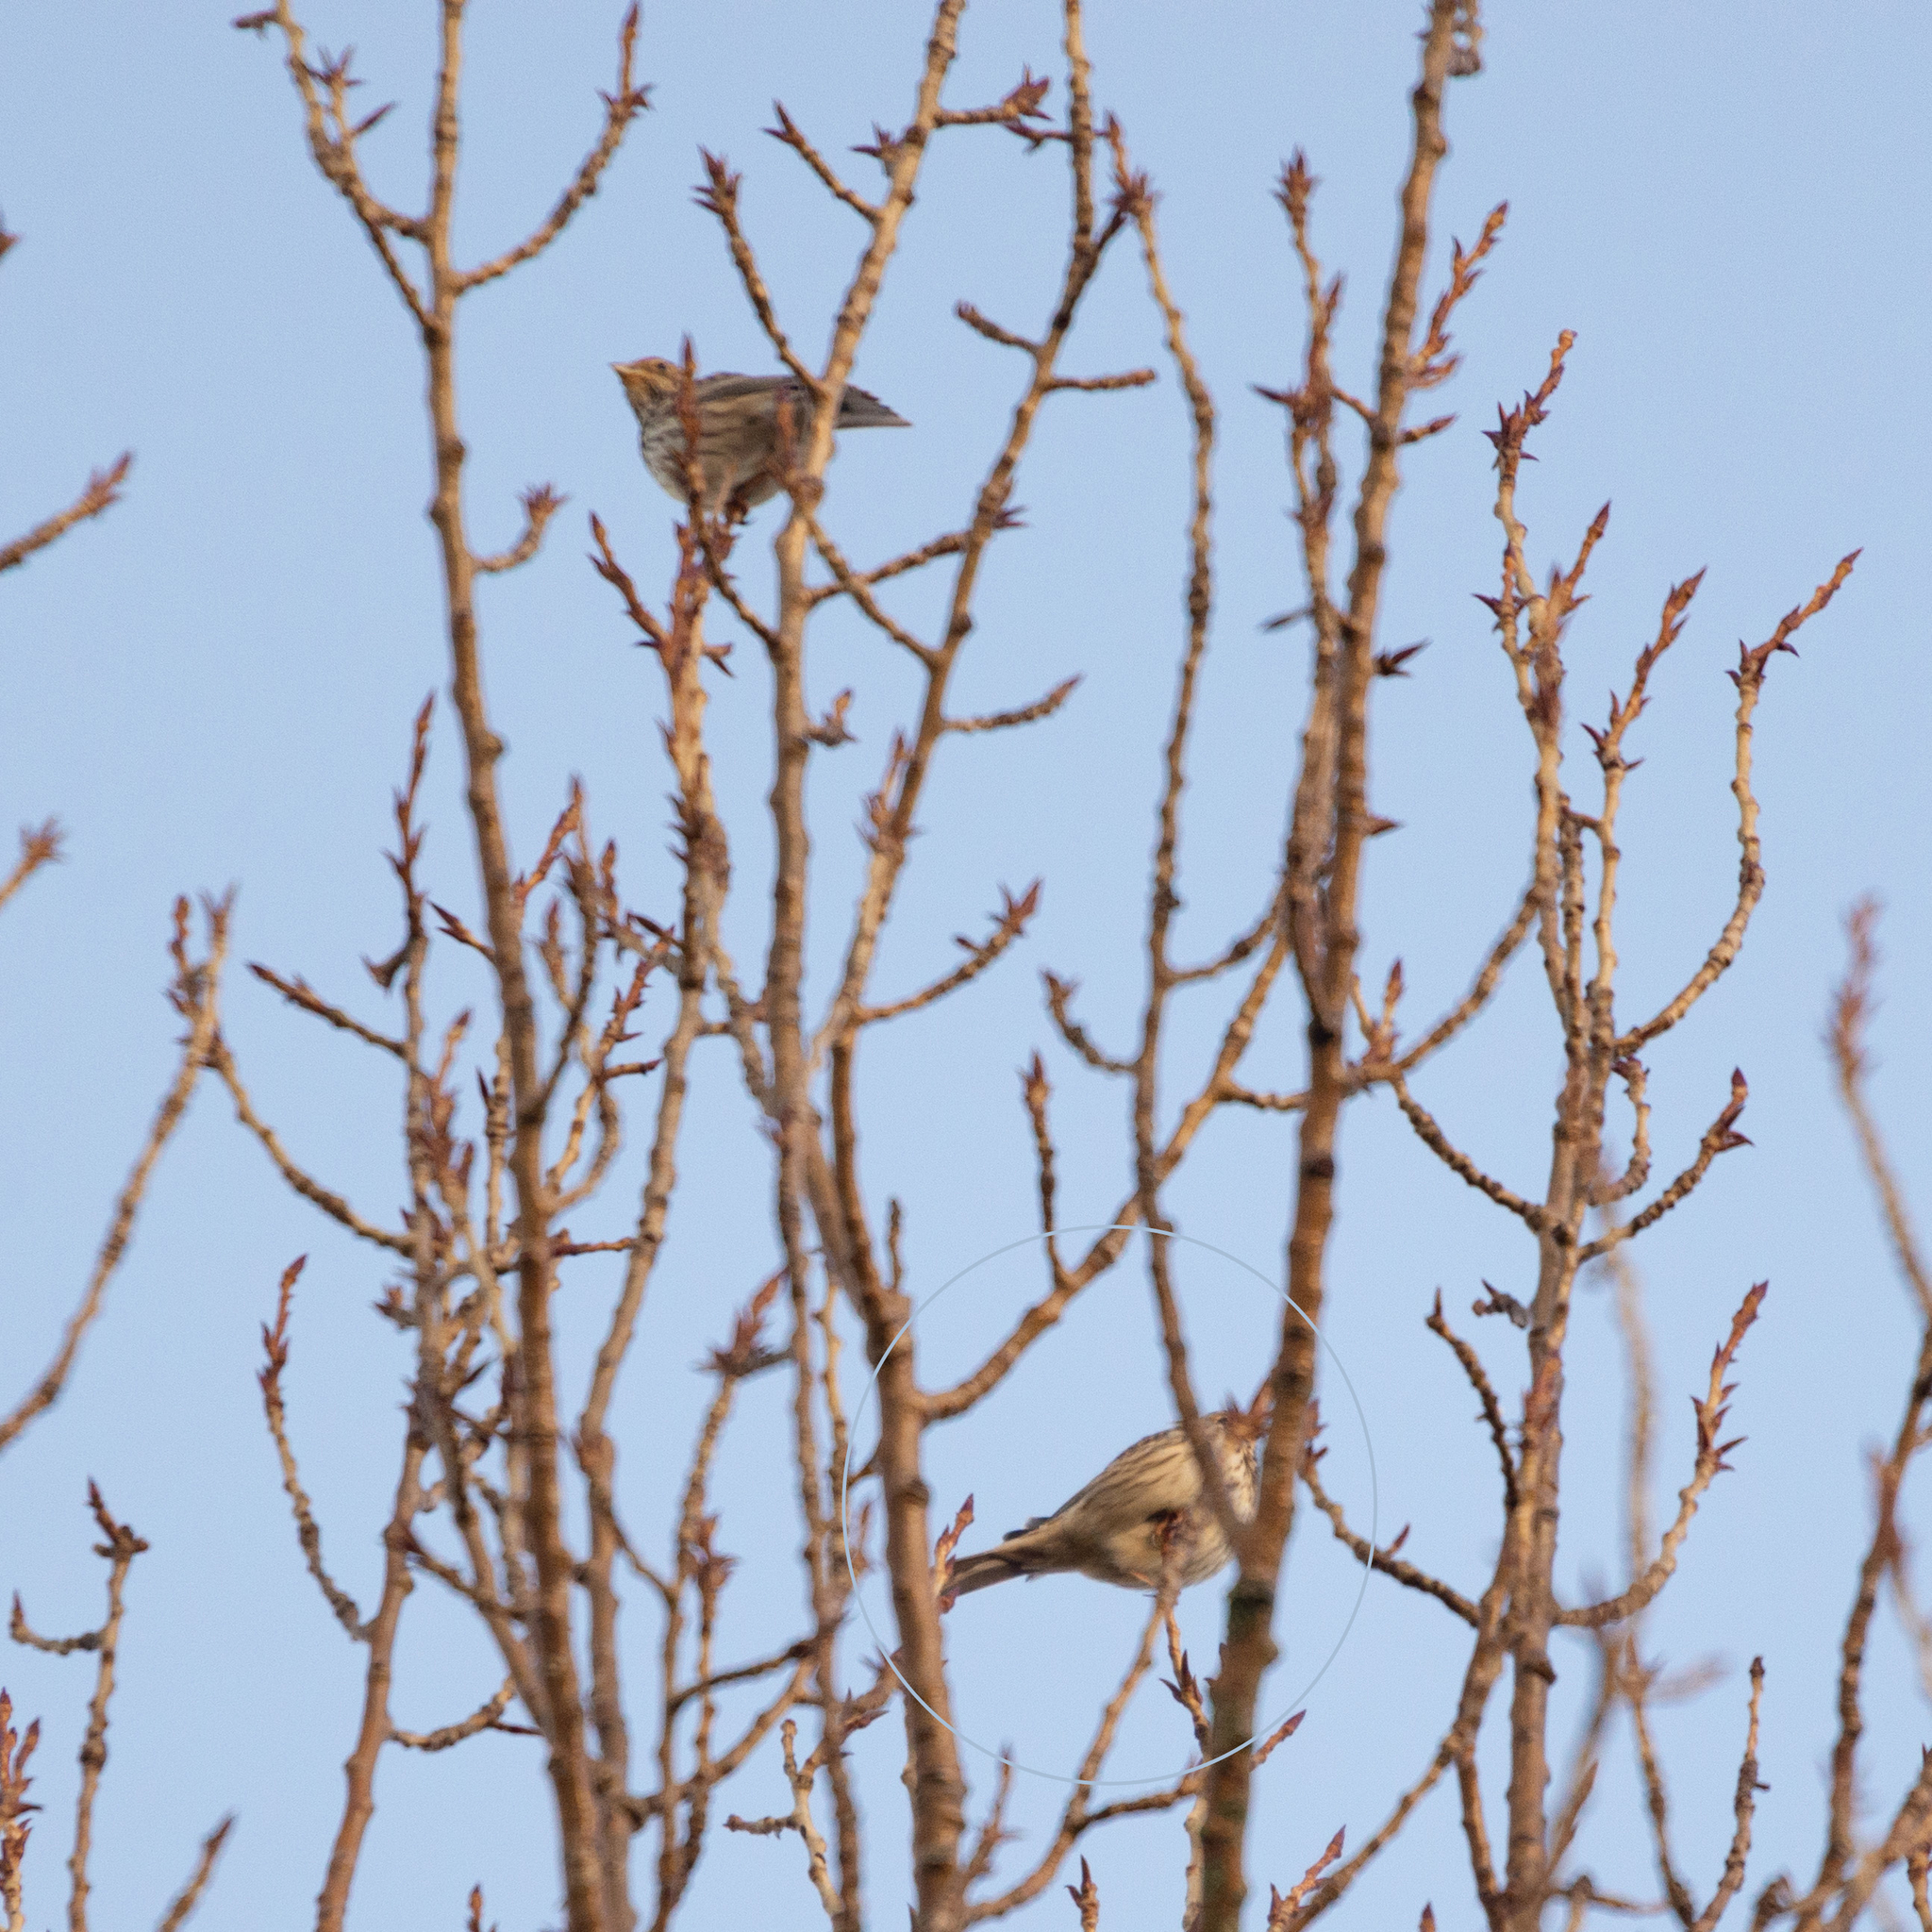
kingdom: Animalia
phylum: Chordata
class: Aves
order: Passeriformes
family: Emberizidae
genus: Emberiza
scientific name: Emberiza calandra
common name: Corn bunting
